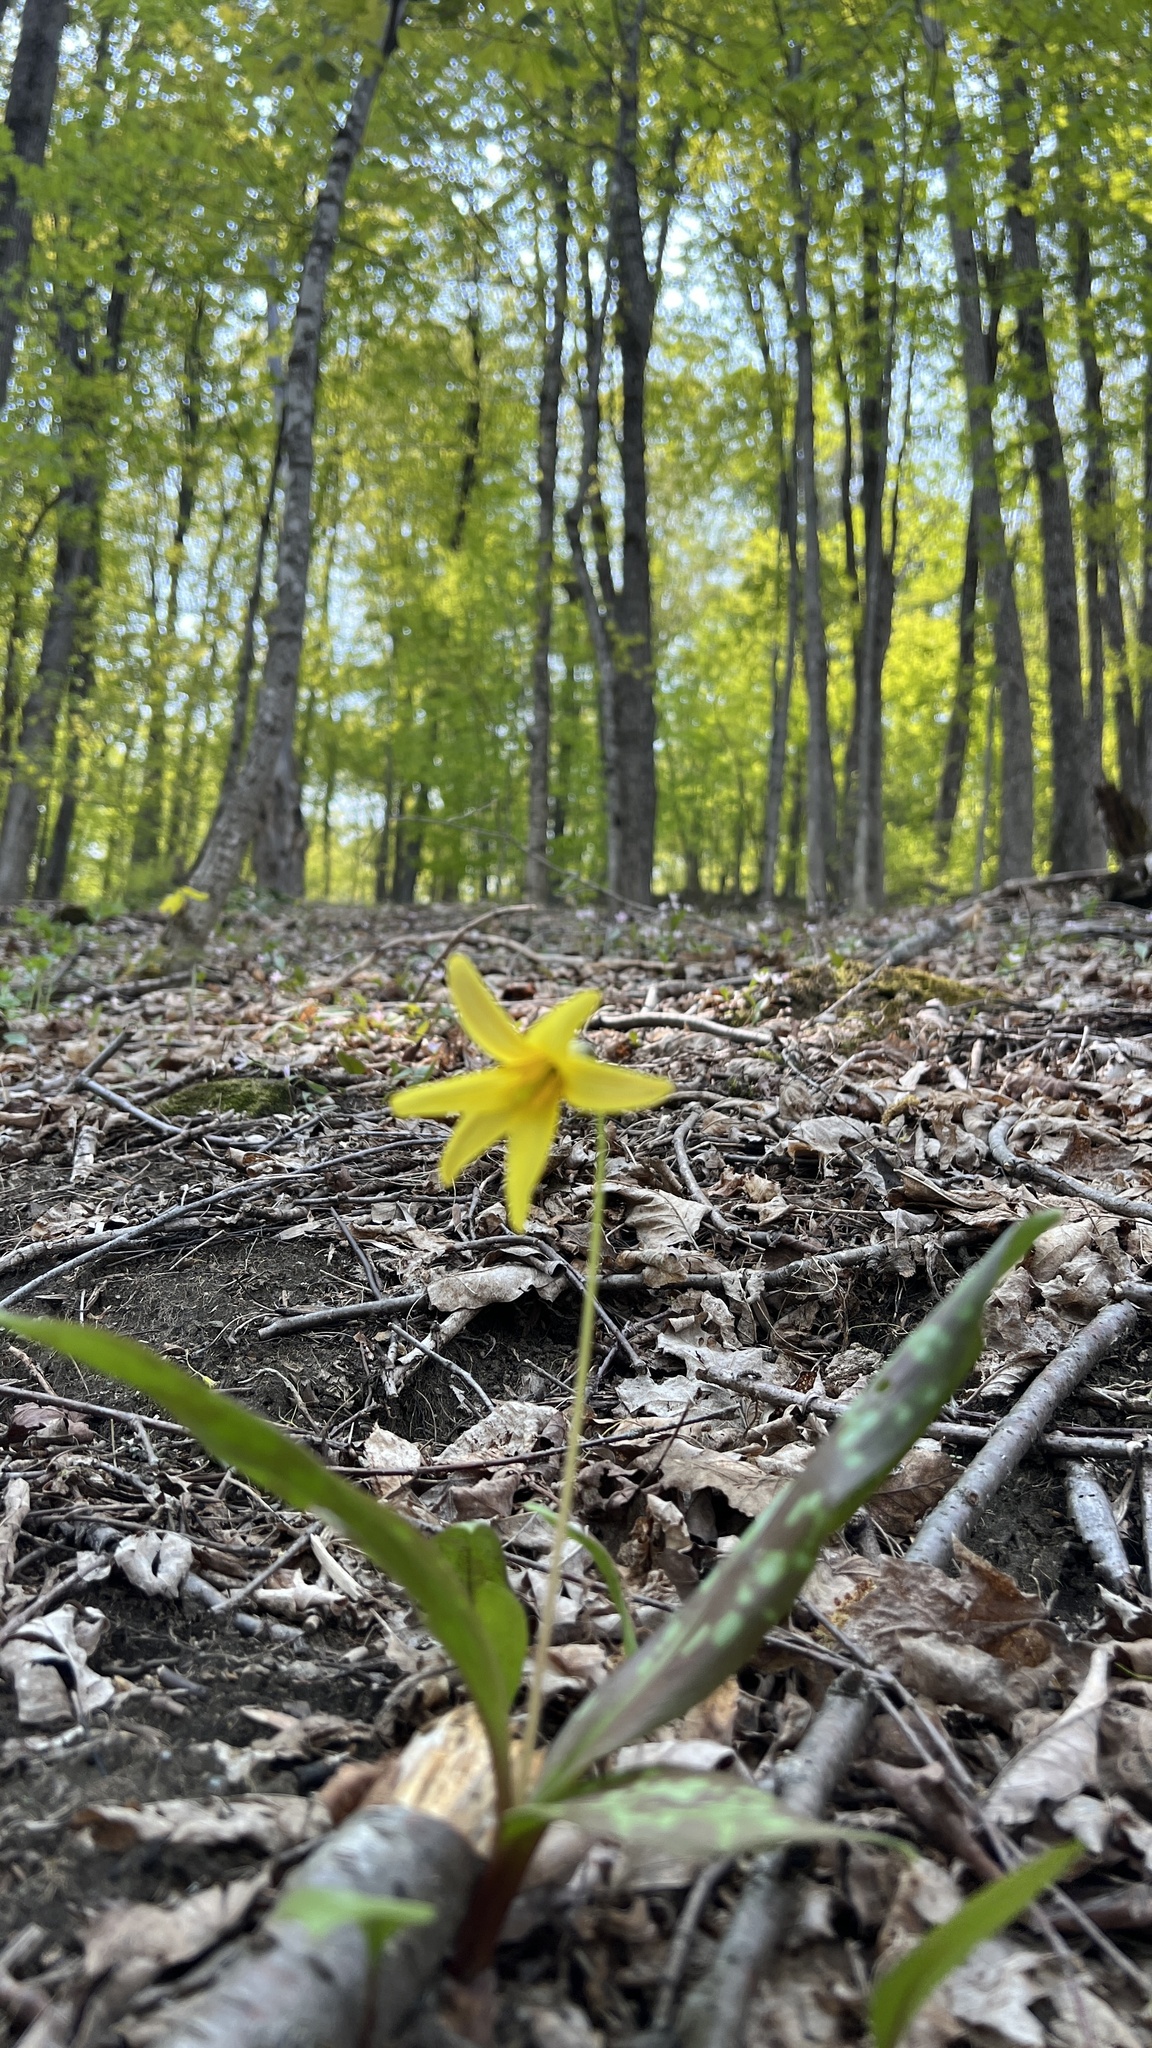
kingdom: Plantae
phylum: Tracheophyta
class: Liliopsida
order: Liliales
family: Liliaceae
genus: Erythronium
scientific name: Erythronium americanum
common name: Yellow adder's-tongue
